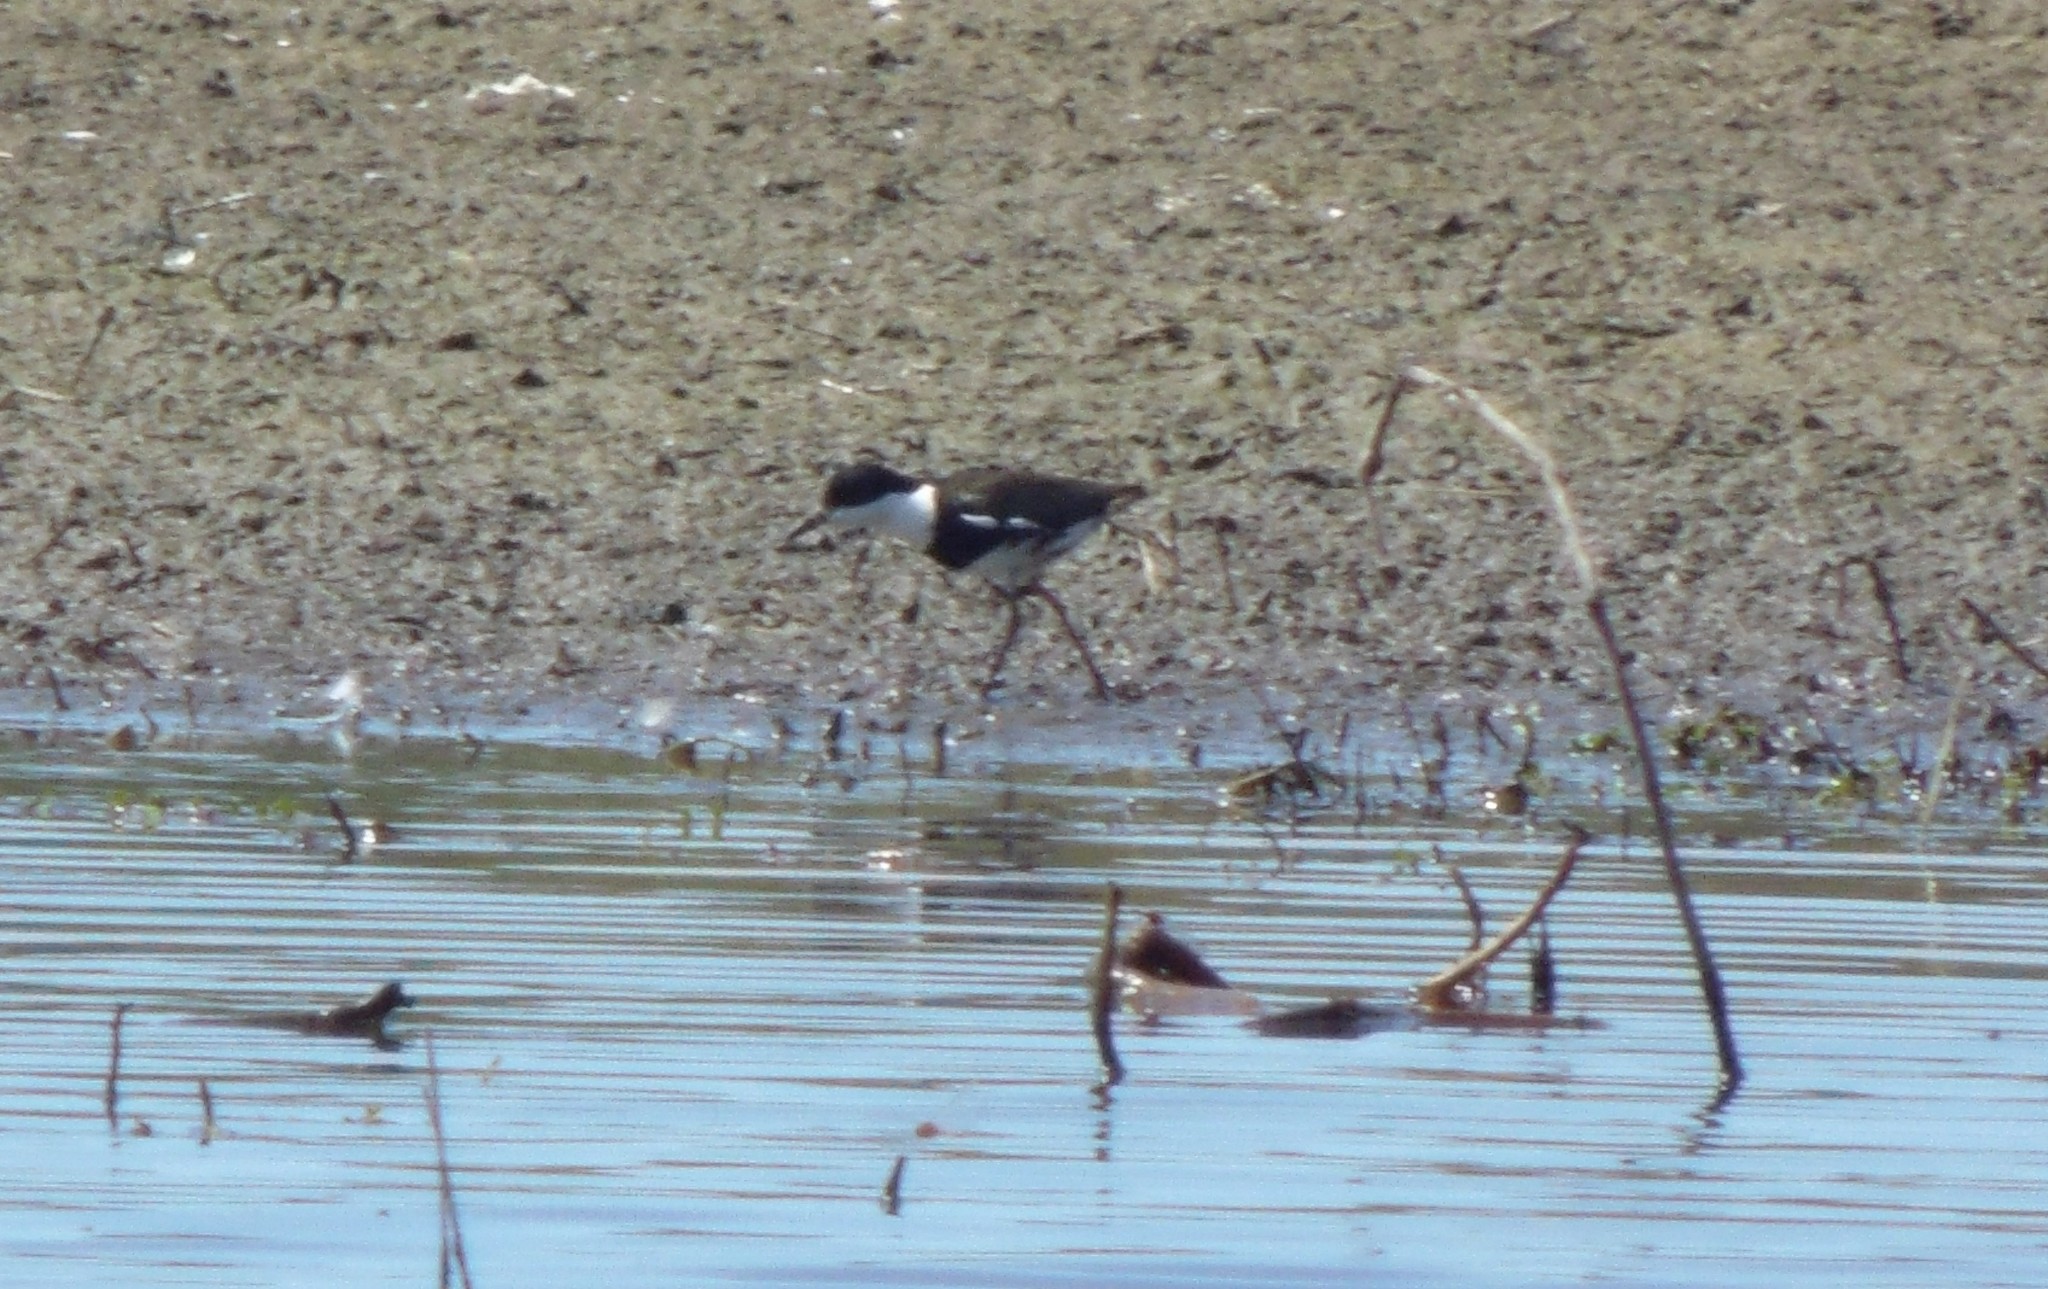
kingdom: Animalia
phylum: Chordata
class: Aves
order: Charadriiformes
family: Charadriidae
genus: Erythrogonys
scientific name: Erythrogonys cinctus
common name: Red-kneed dotterel
